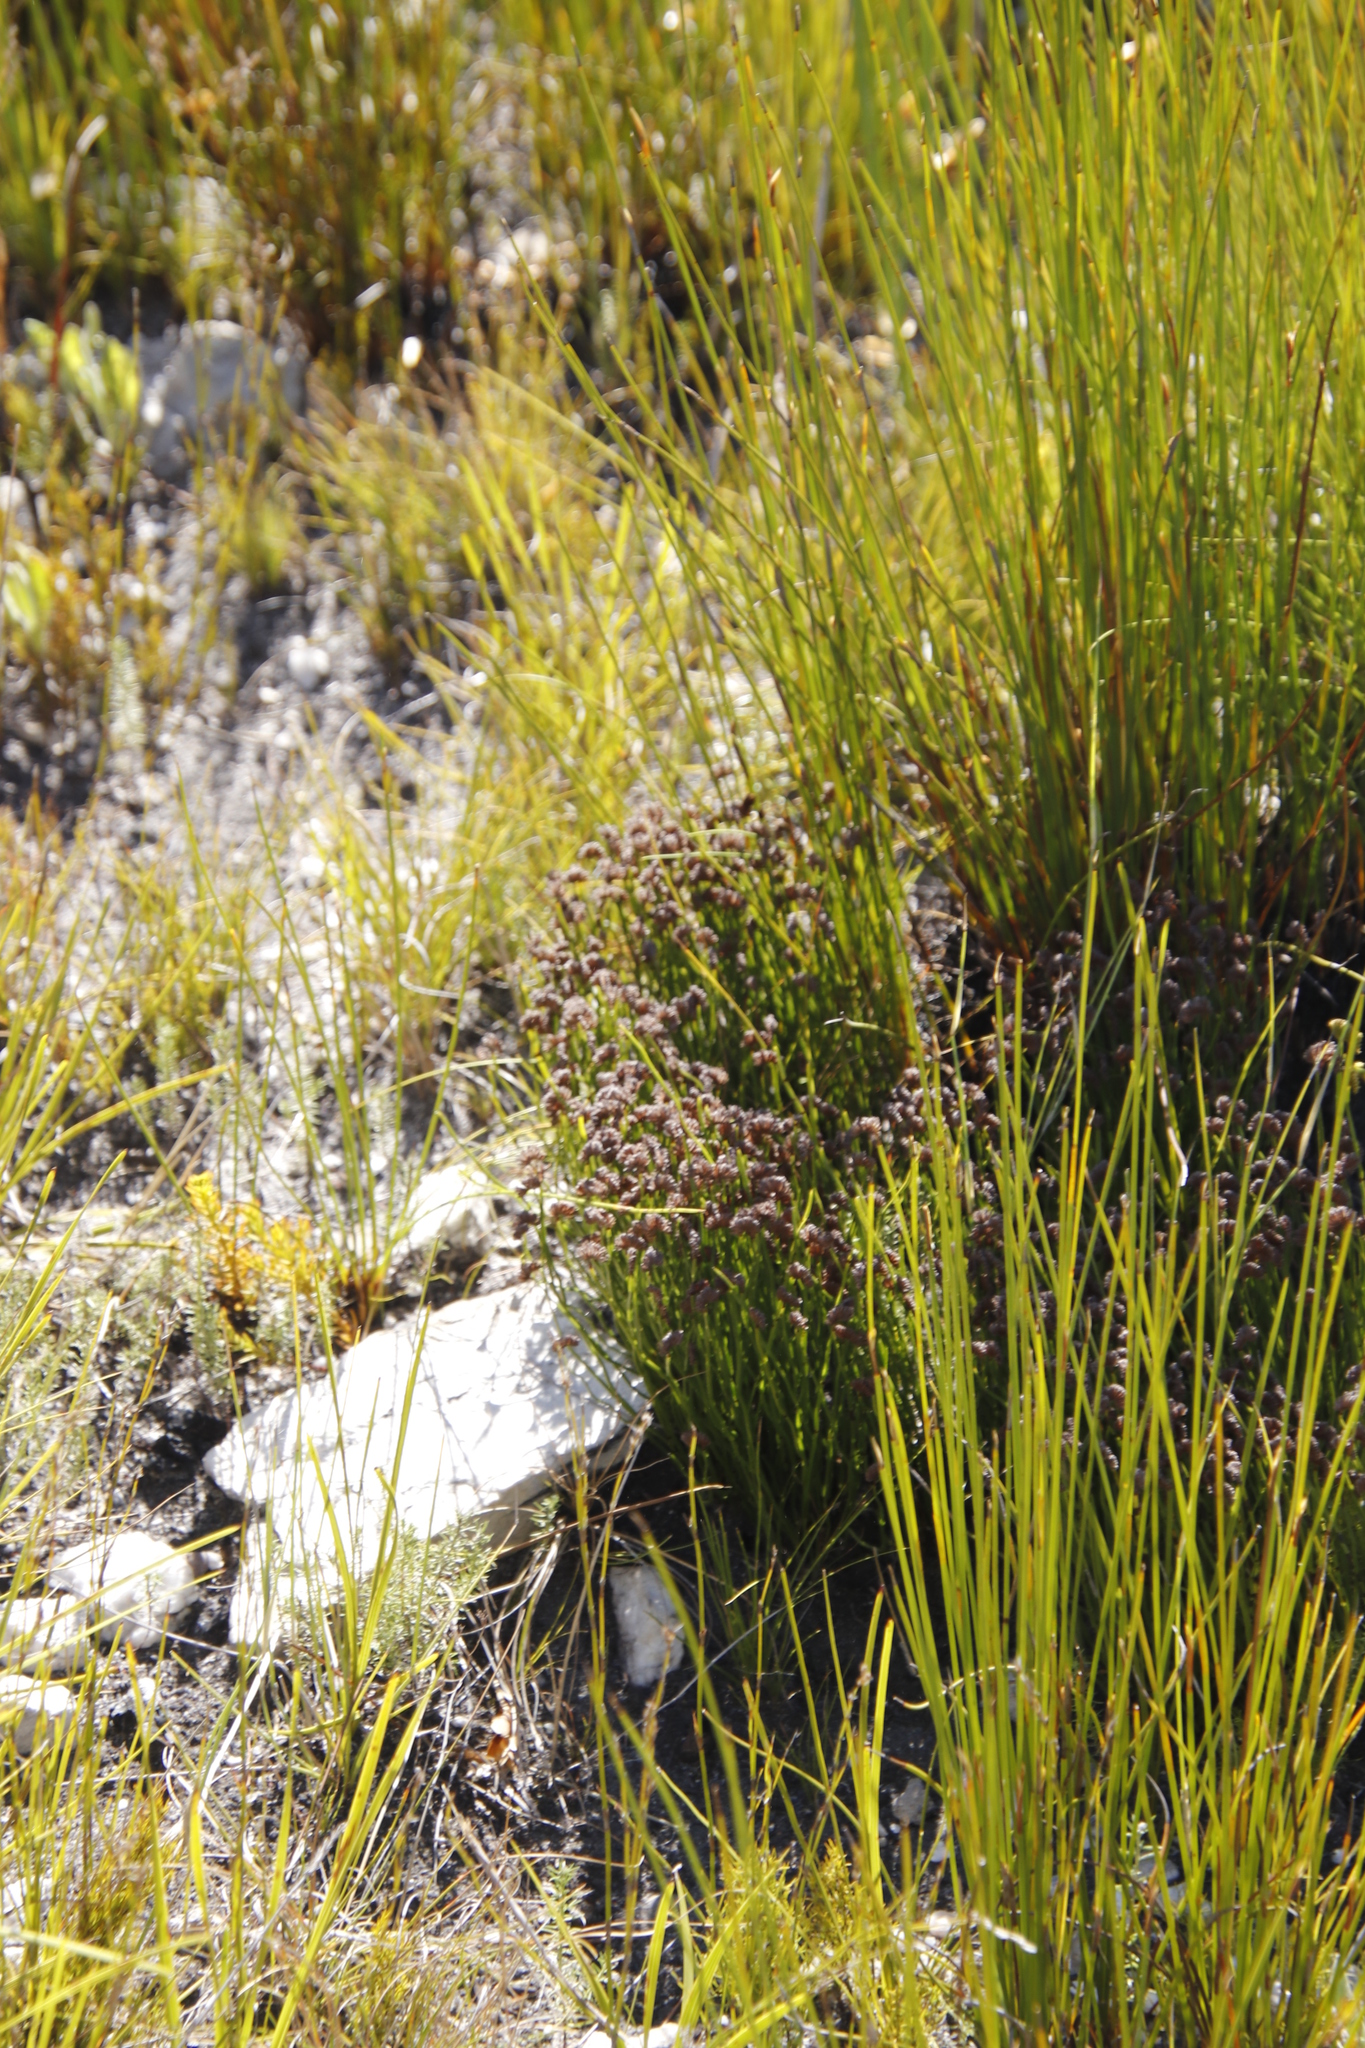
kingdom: Plantae
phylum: Tracheophyta
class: Polypodiopsida
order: Schizaeales
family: Schizaeaceae
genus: Schizaea
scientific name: Schizaea pectinata
